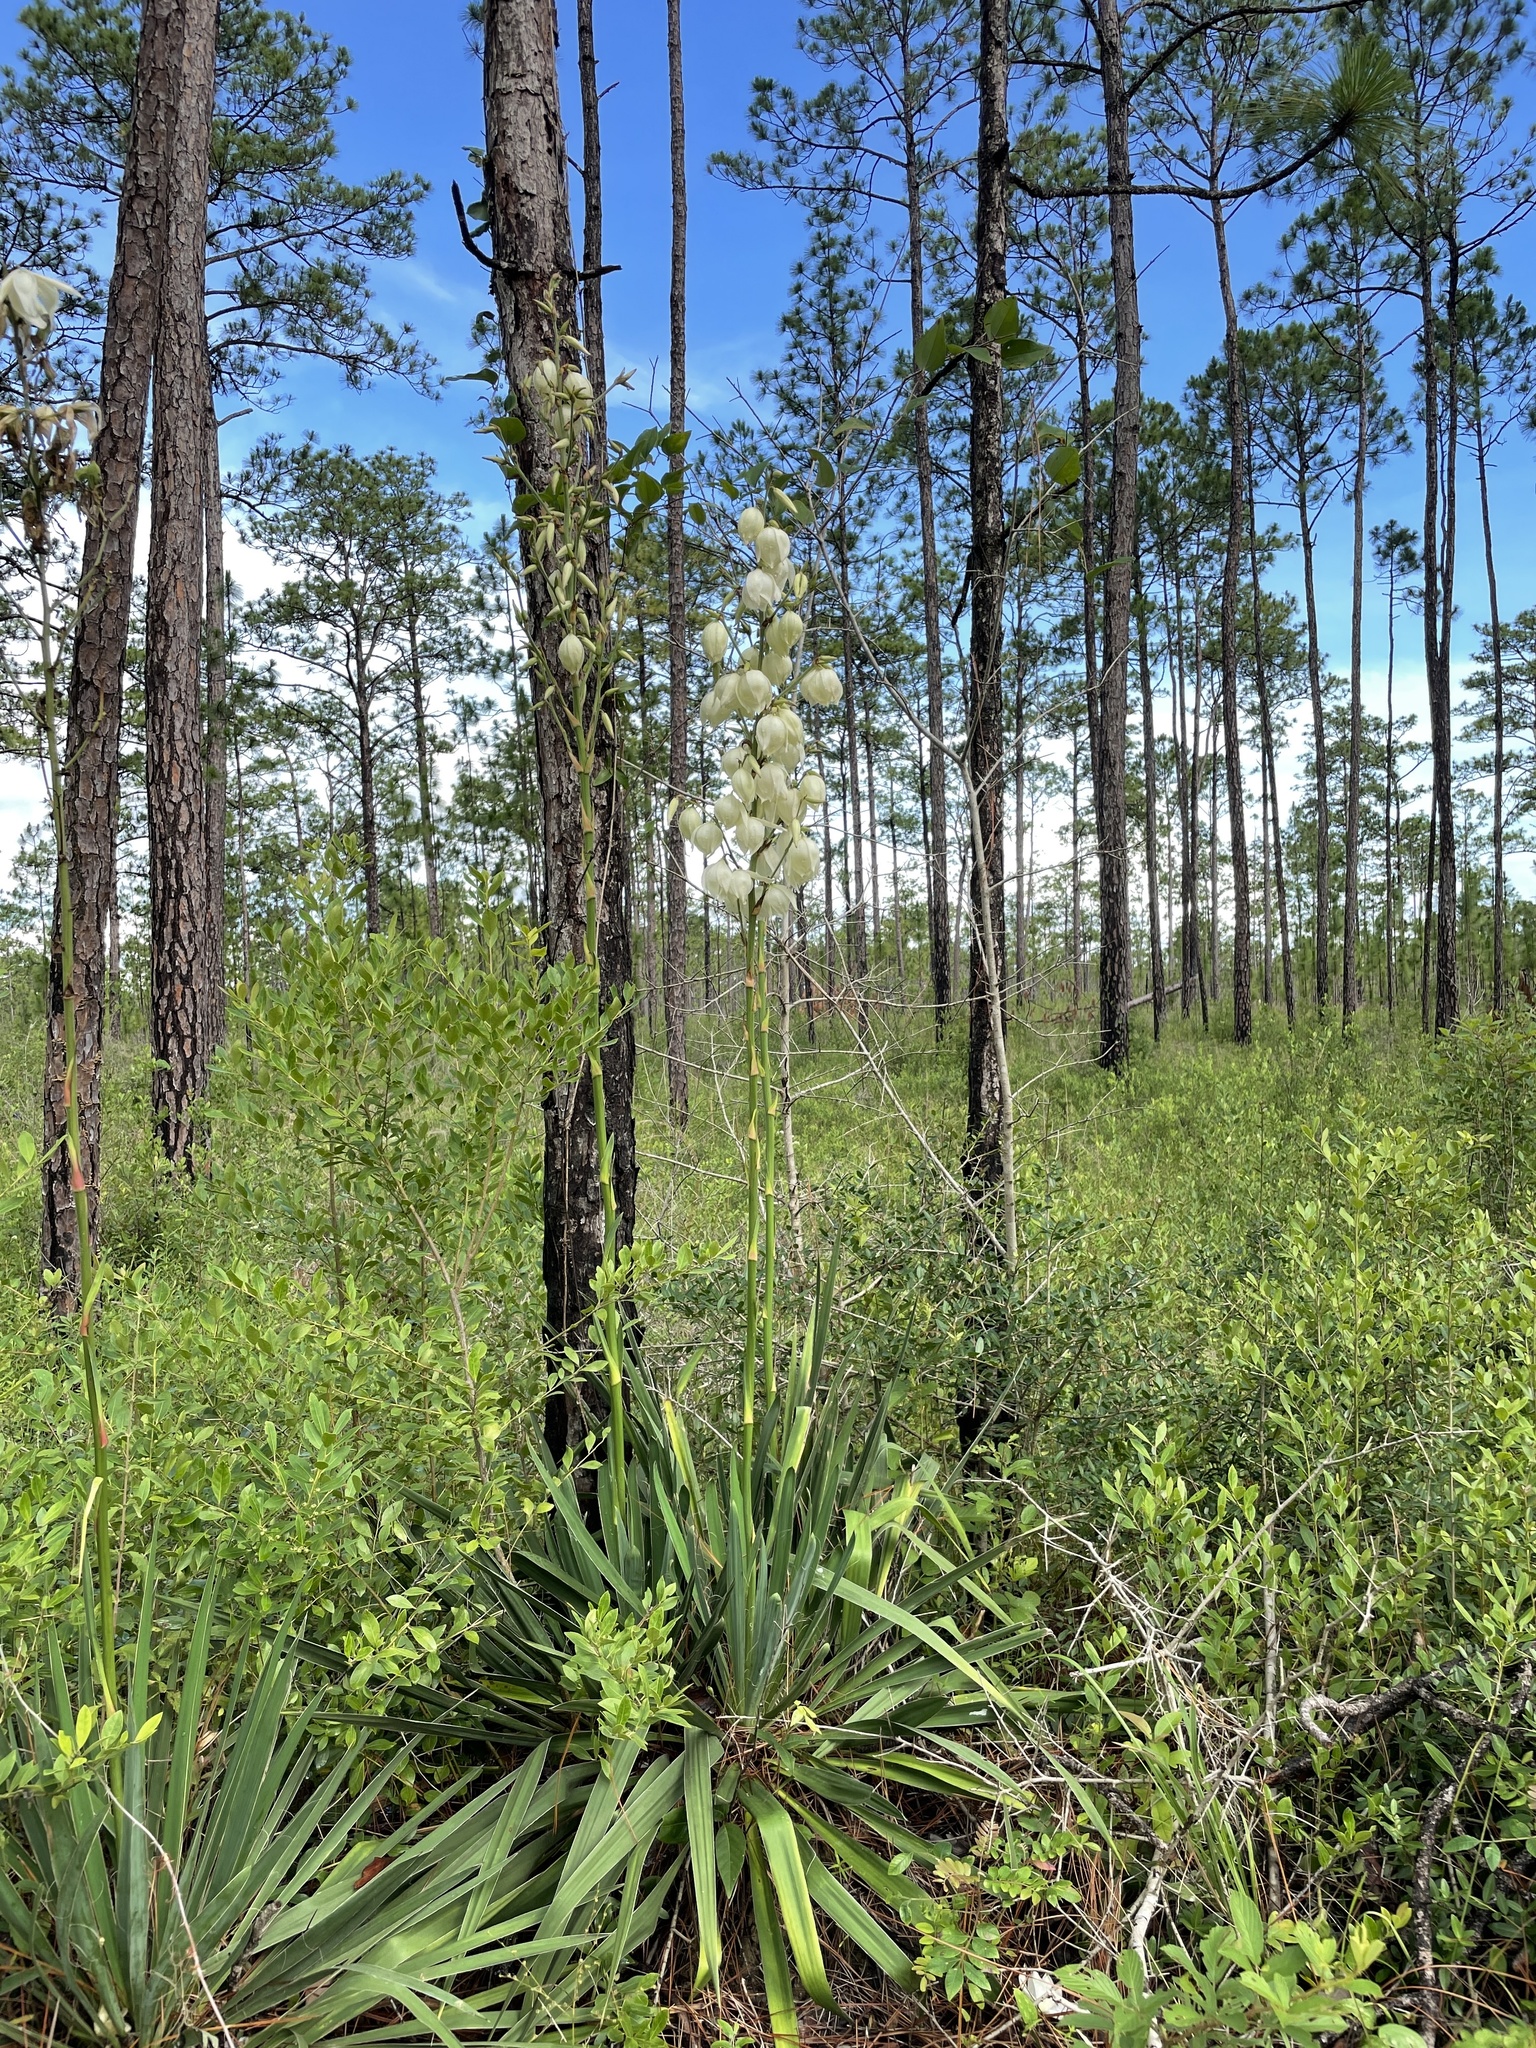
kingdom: Plantae
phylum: Tracheophyta
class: Liliopsida
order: Asparagales
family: Asparagaceae
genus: Yucca
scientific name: Yucca filamentosa
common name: Adam's-needle
